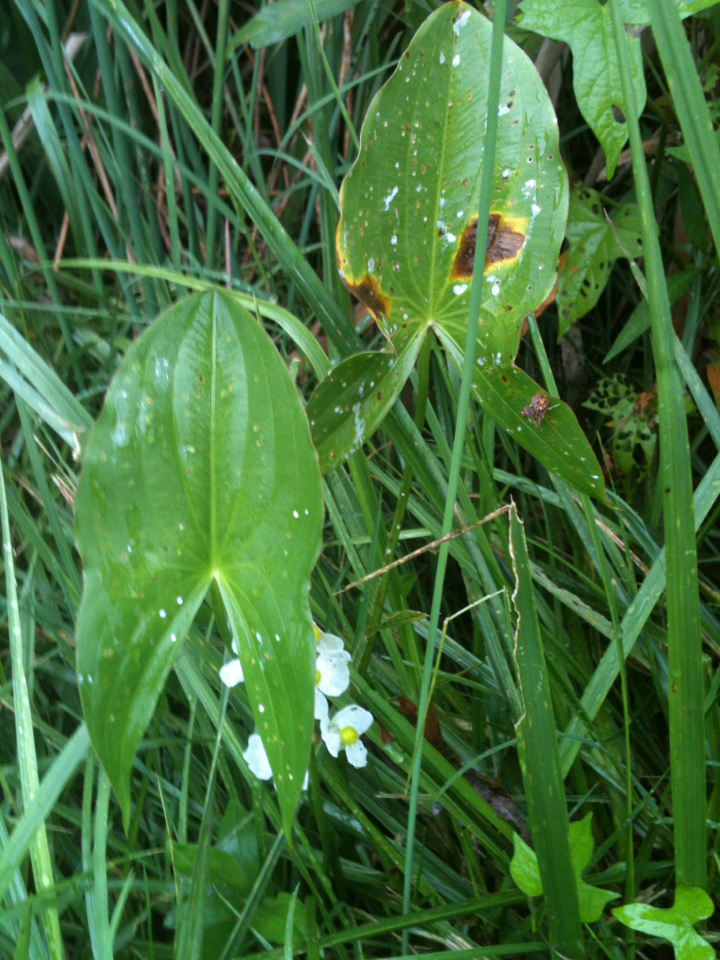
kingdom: Plantae
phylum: Tracheophyta
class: Liliopsida
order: Alismatales
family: Alismataceae
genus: Sagittaria
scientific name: Sagittaria latifolia
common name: Duck-potato
